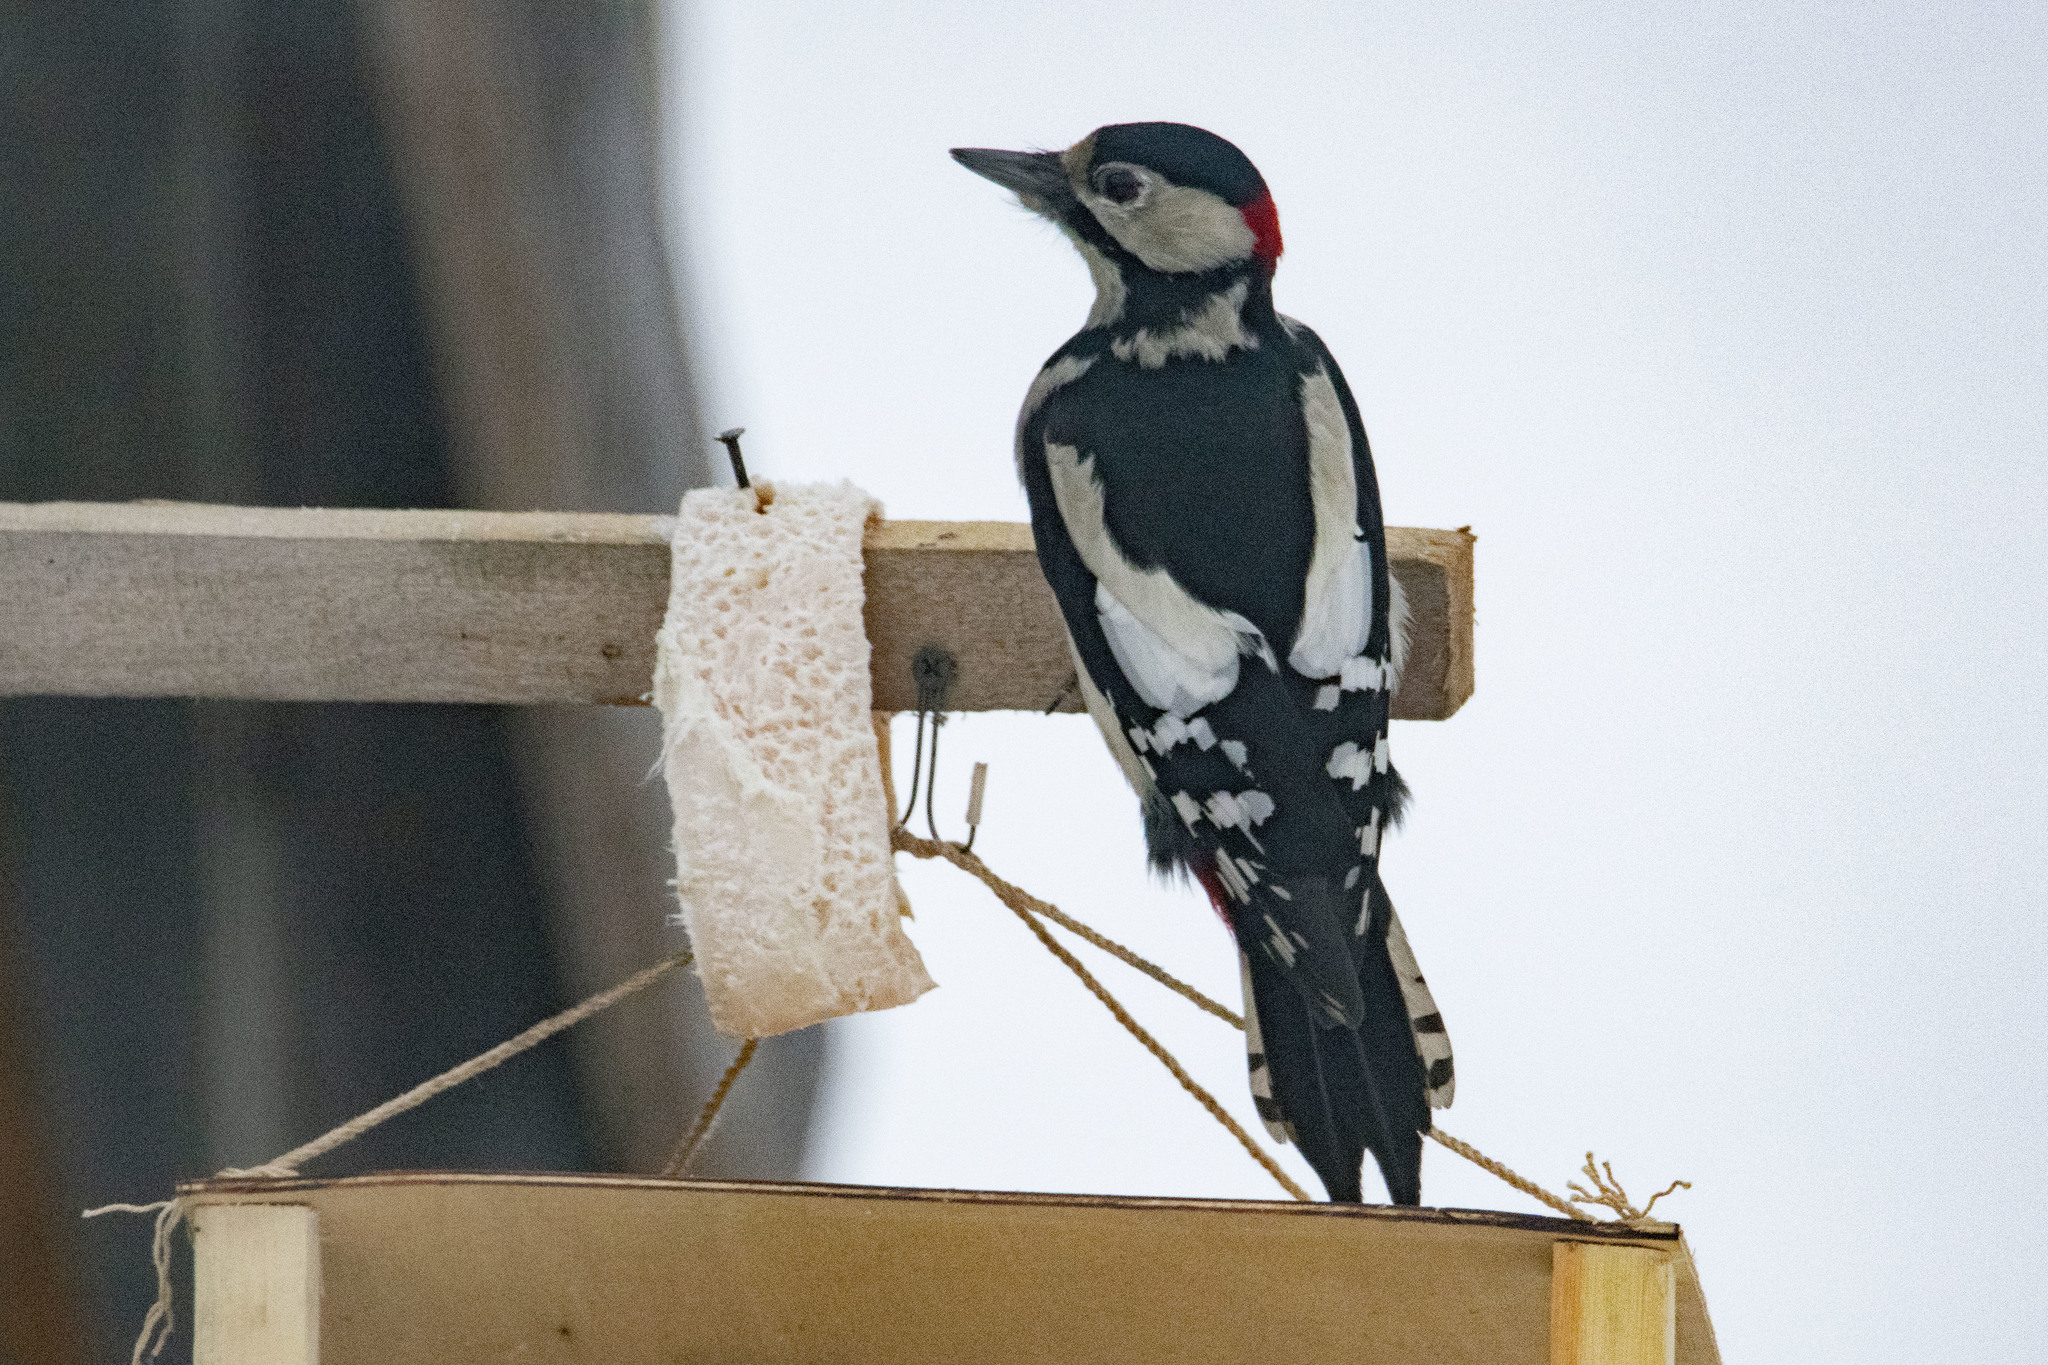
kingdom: Animalia
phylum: Chordata
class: Aves
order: Piciformes
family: Picidae
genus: Dendrocopos
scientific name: Dendrocopos major
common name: Great spotted woodpecker
